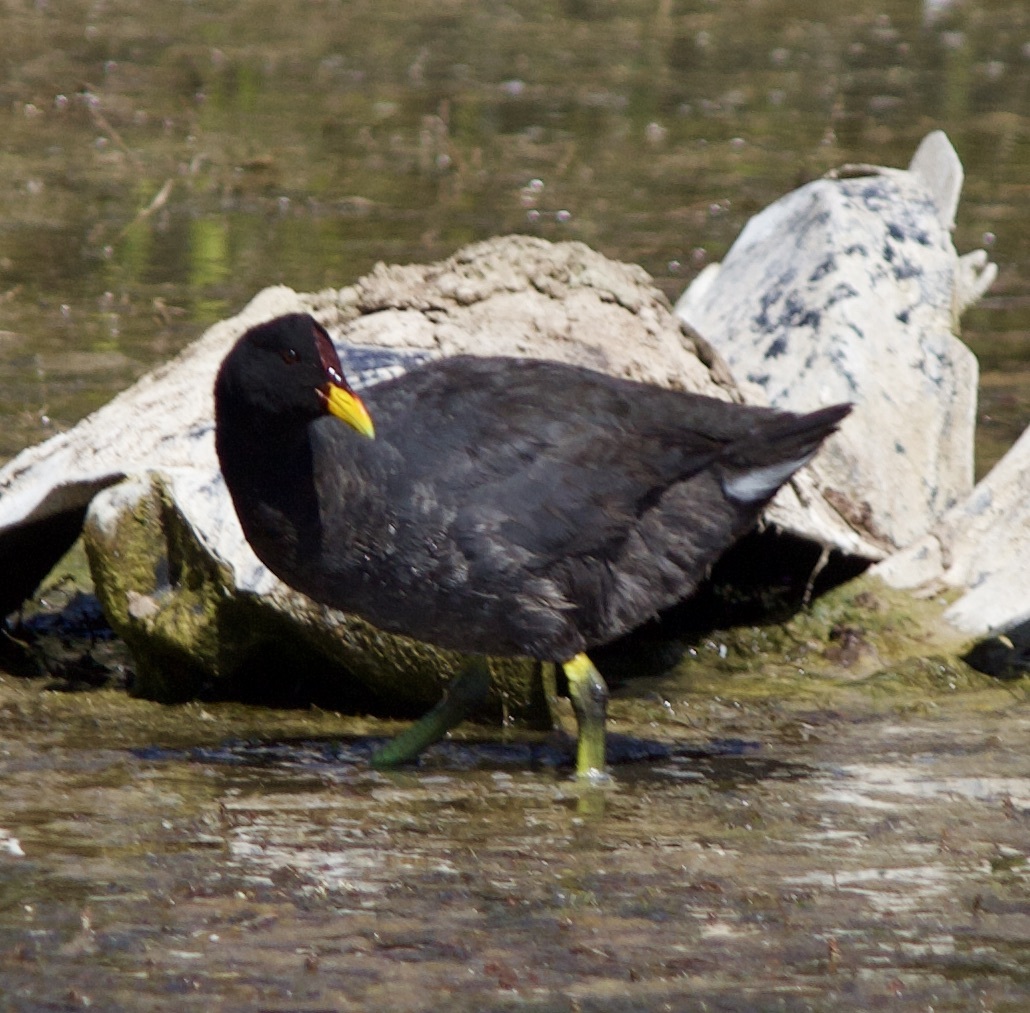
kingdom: Animalia
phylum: Chordata
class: Aves
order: Gruiformes
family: Rallidae
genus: Fulica
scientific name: Fulica rufifrons
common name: Red-fronted coot
